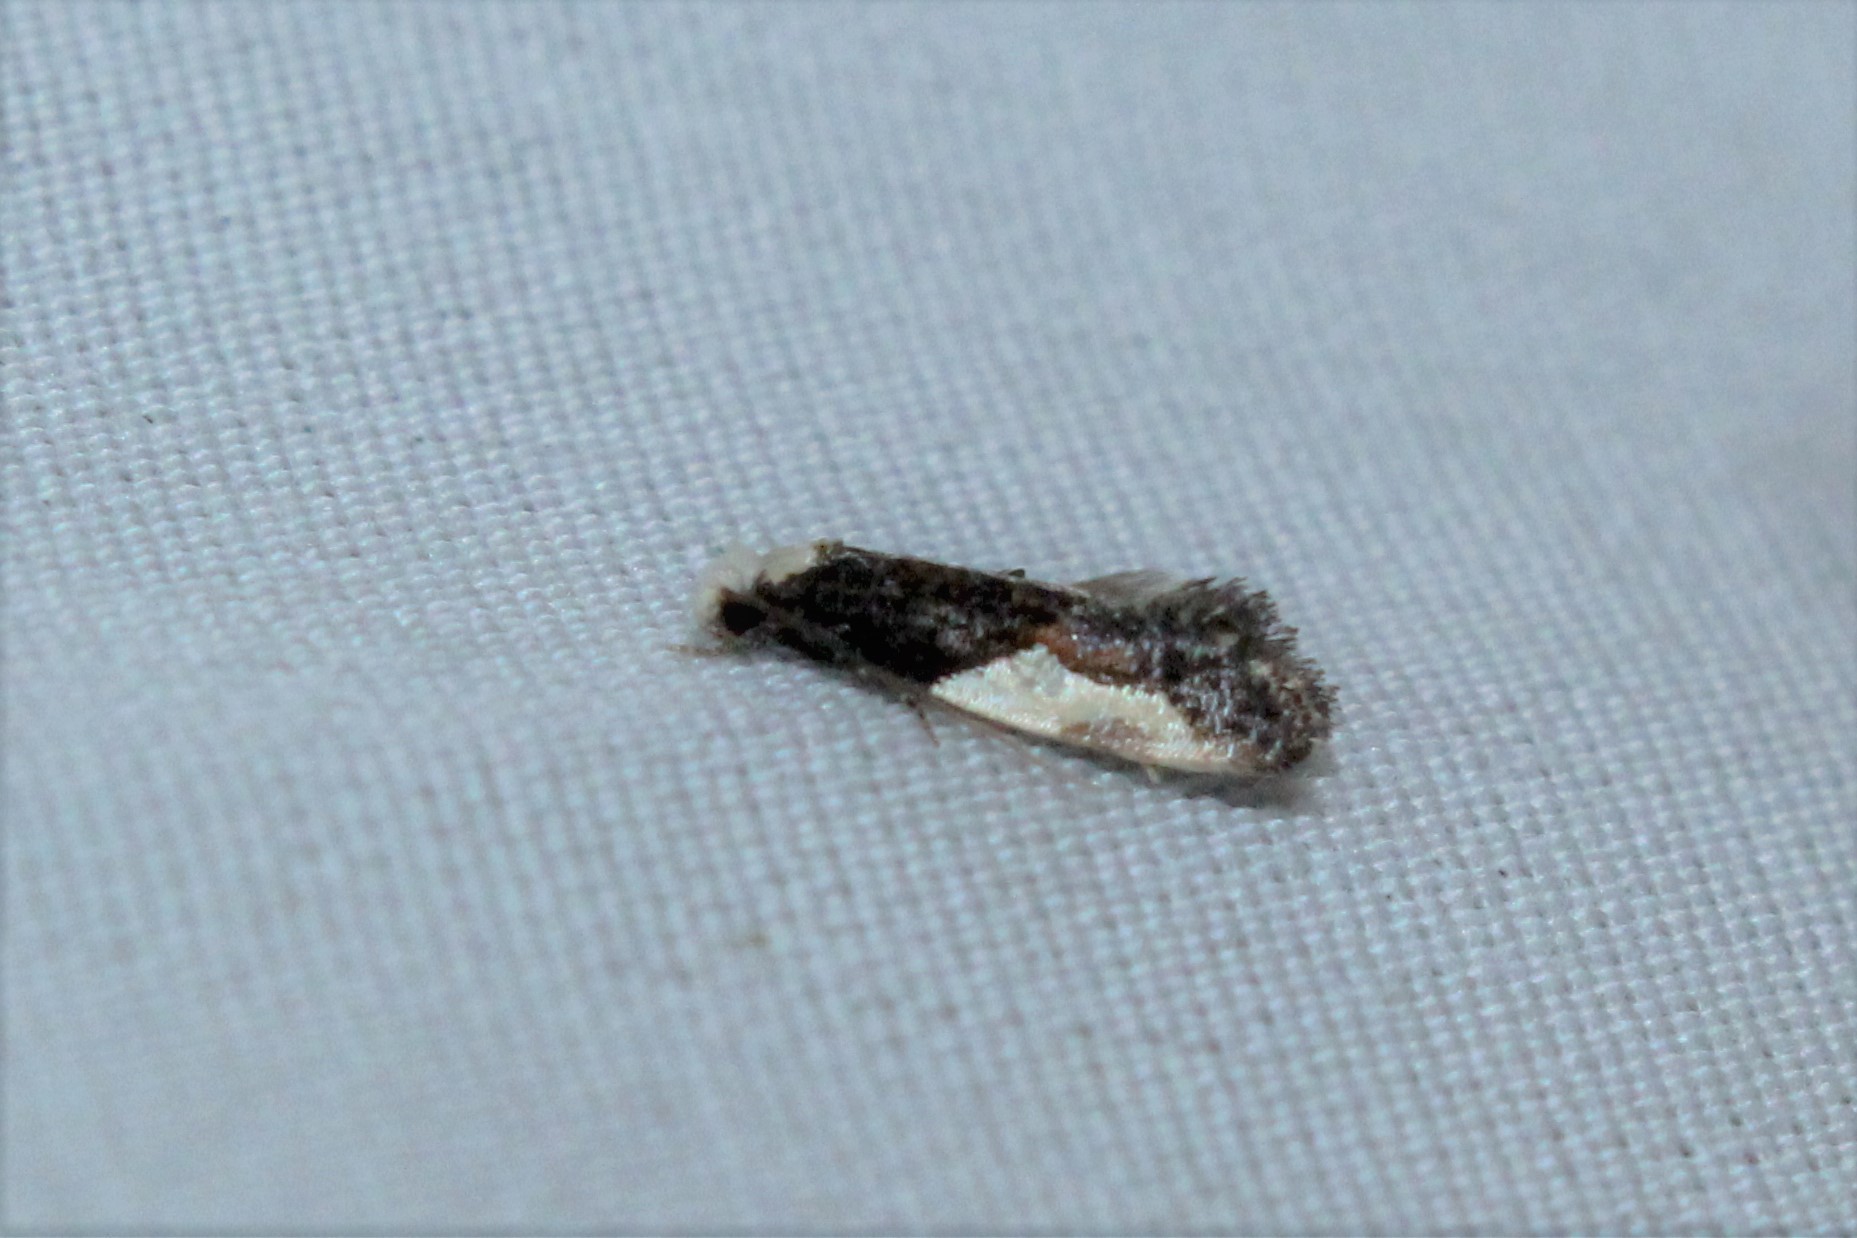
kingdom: Animalia
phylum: Arthropoda
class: Insecta
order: Lepidoptera
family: Tineidae
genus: Monopis
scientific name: Monopis longella
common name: Pavlovski's monopis moth
